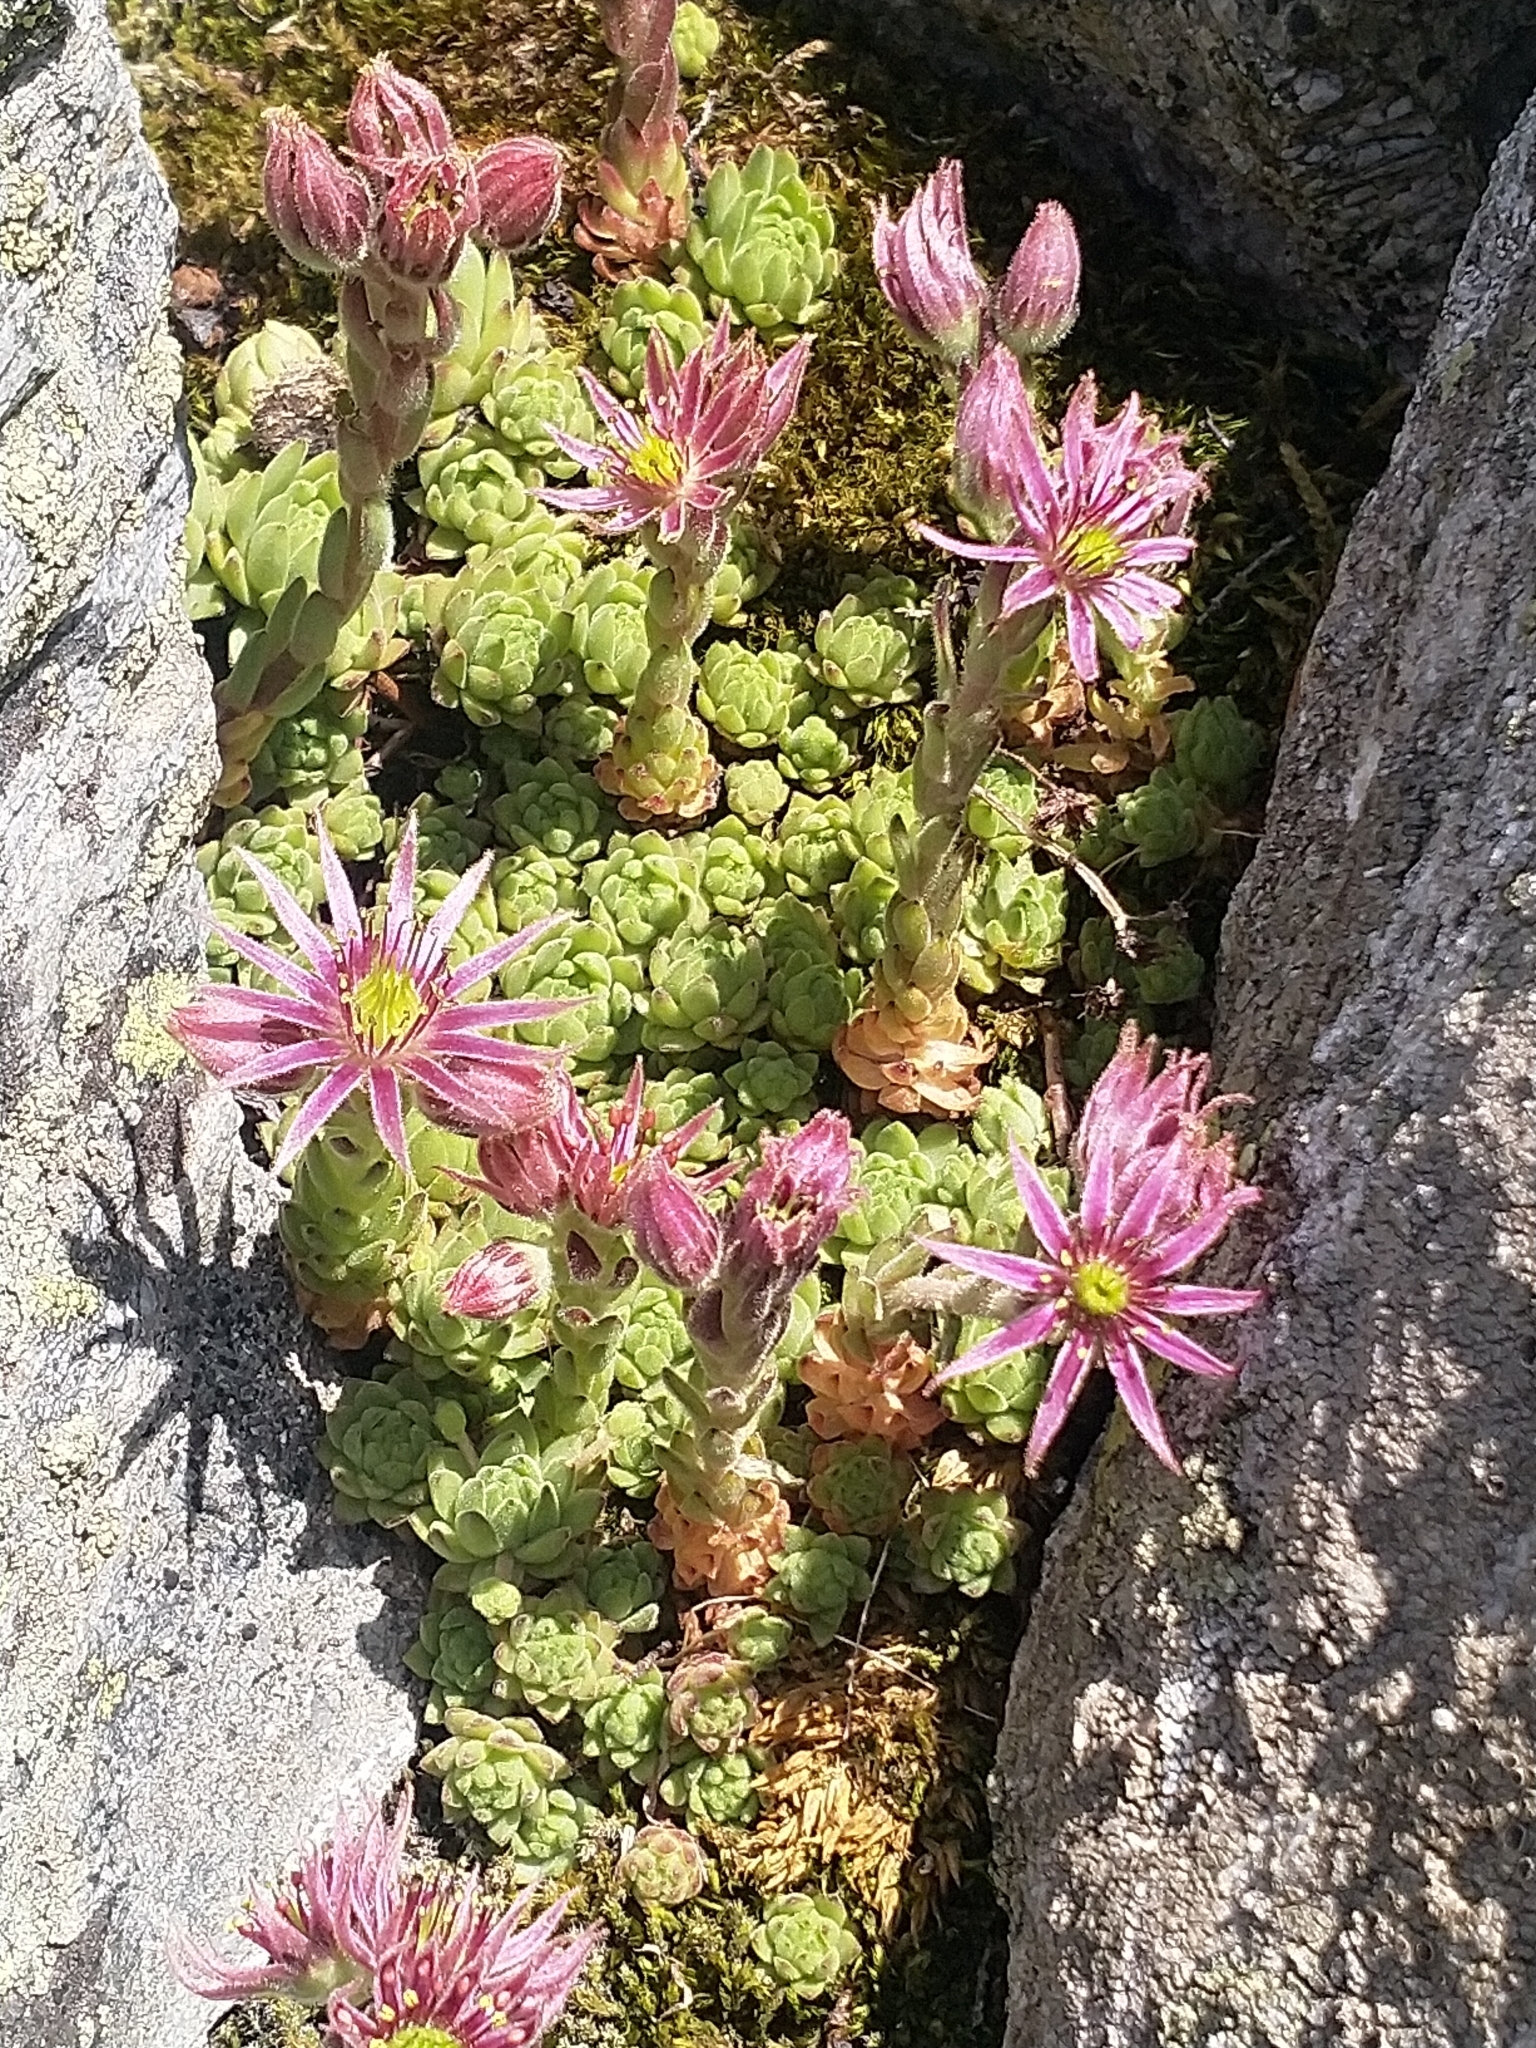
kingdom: Plantae
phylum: Tracheophyta
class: Magnoliopsida
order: Saxifragales
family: Crassulaceae
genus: Sempervivum
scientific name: Sempervivum montanum
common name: Mountain house-leek
